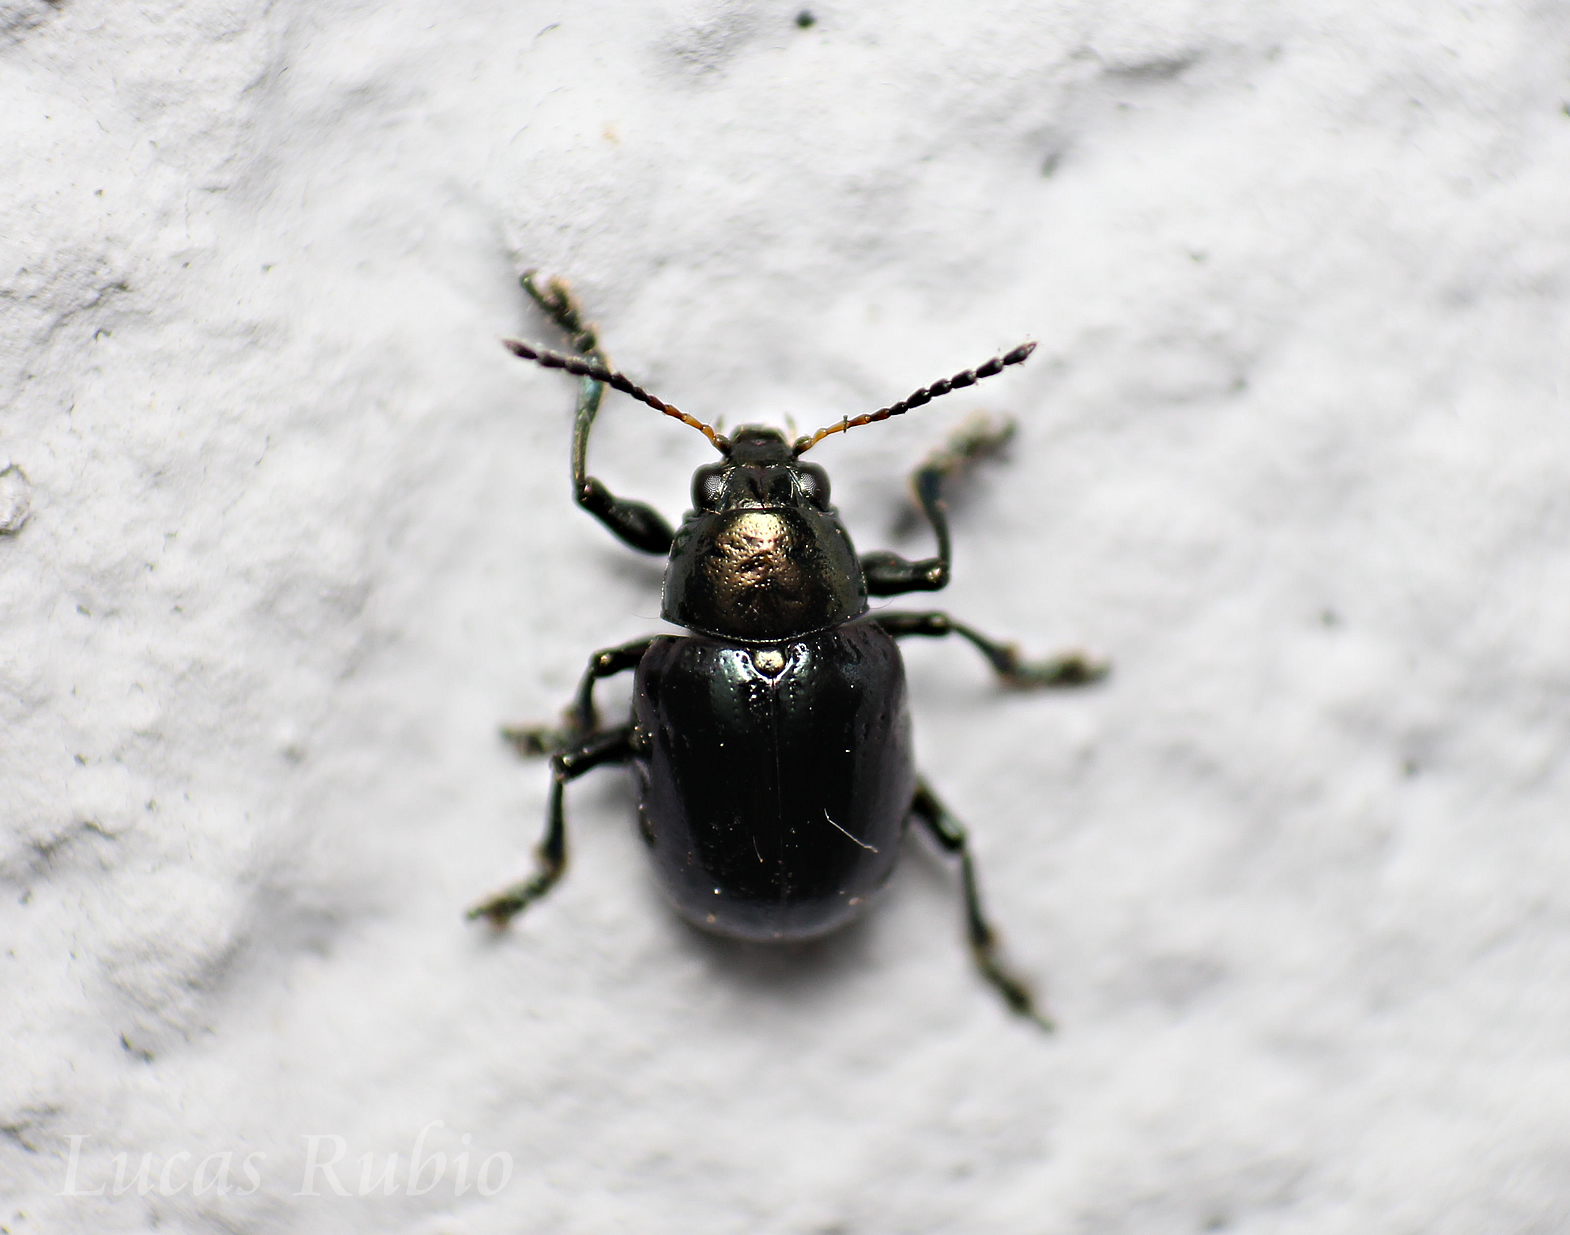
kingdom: Animalia
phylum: Arthropoda
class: Insecta
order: Coleoptera
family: Chrysomelidae
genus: Typophorus
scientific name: Typophorus nigritus
